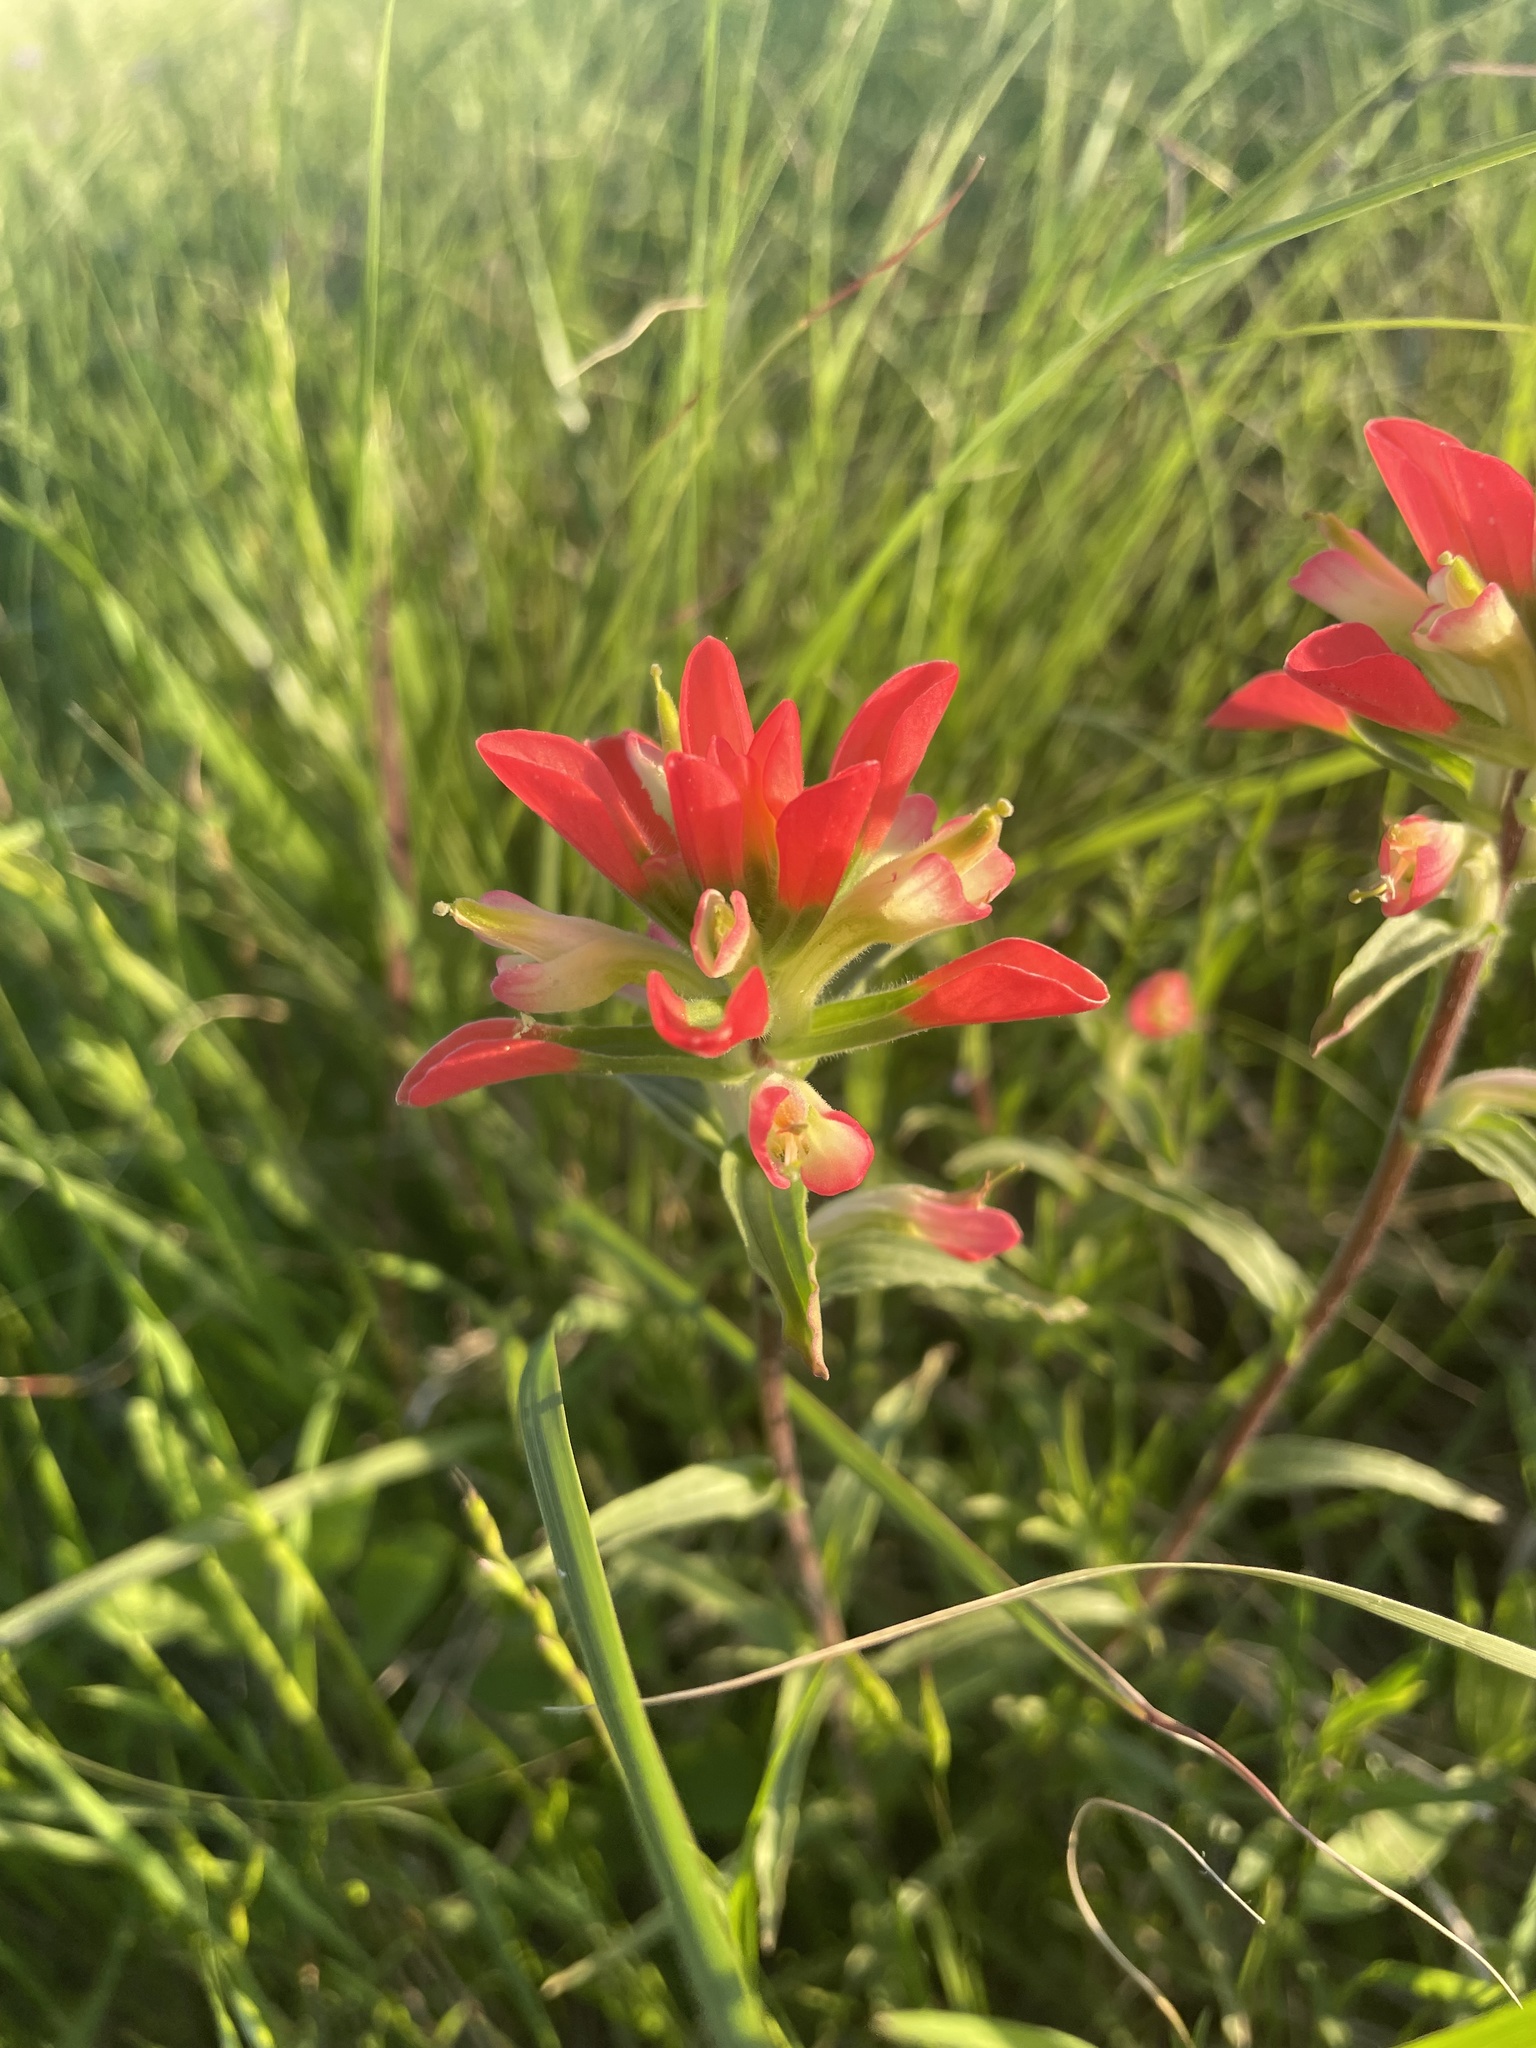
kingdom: Plantae
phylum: Tracheophyta
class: Magnoliopsida
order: Lamiales
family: Orobanchaceae
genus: Castilleja
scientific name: Castilleja indivisa
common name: Texas paintbrush
